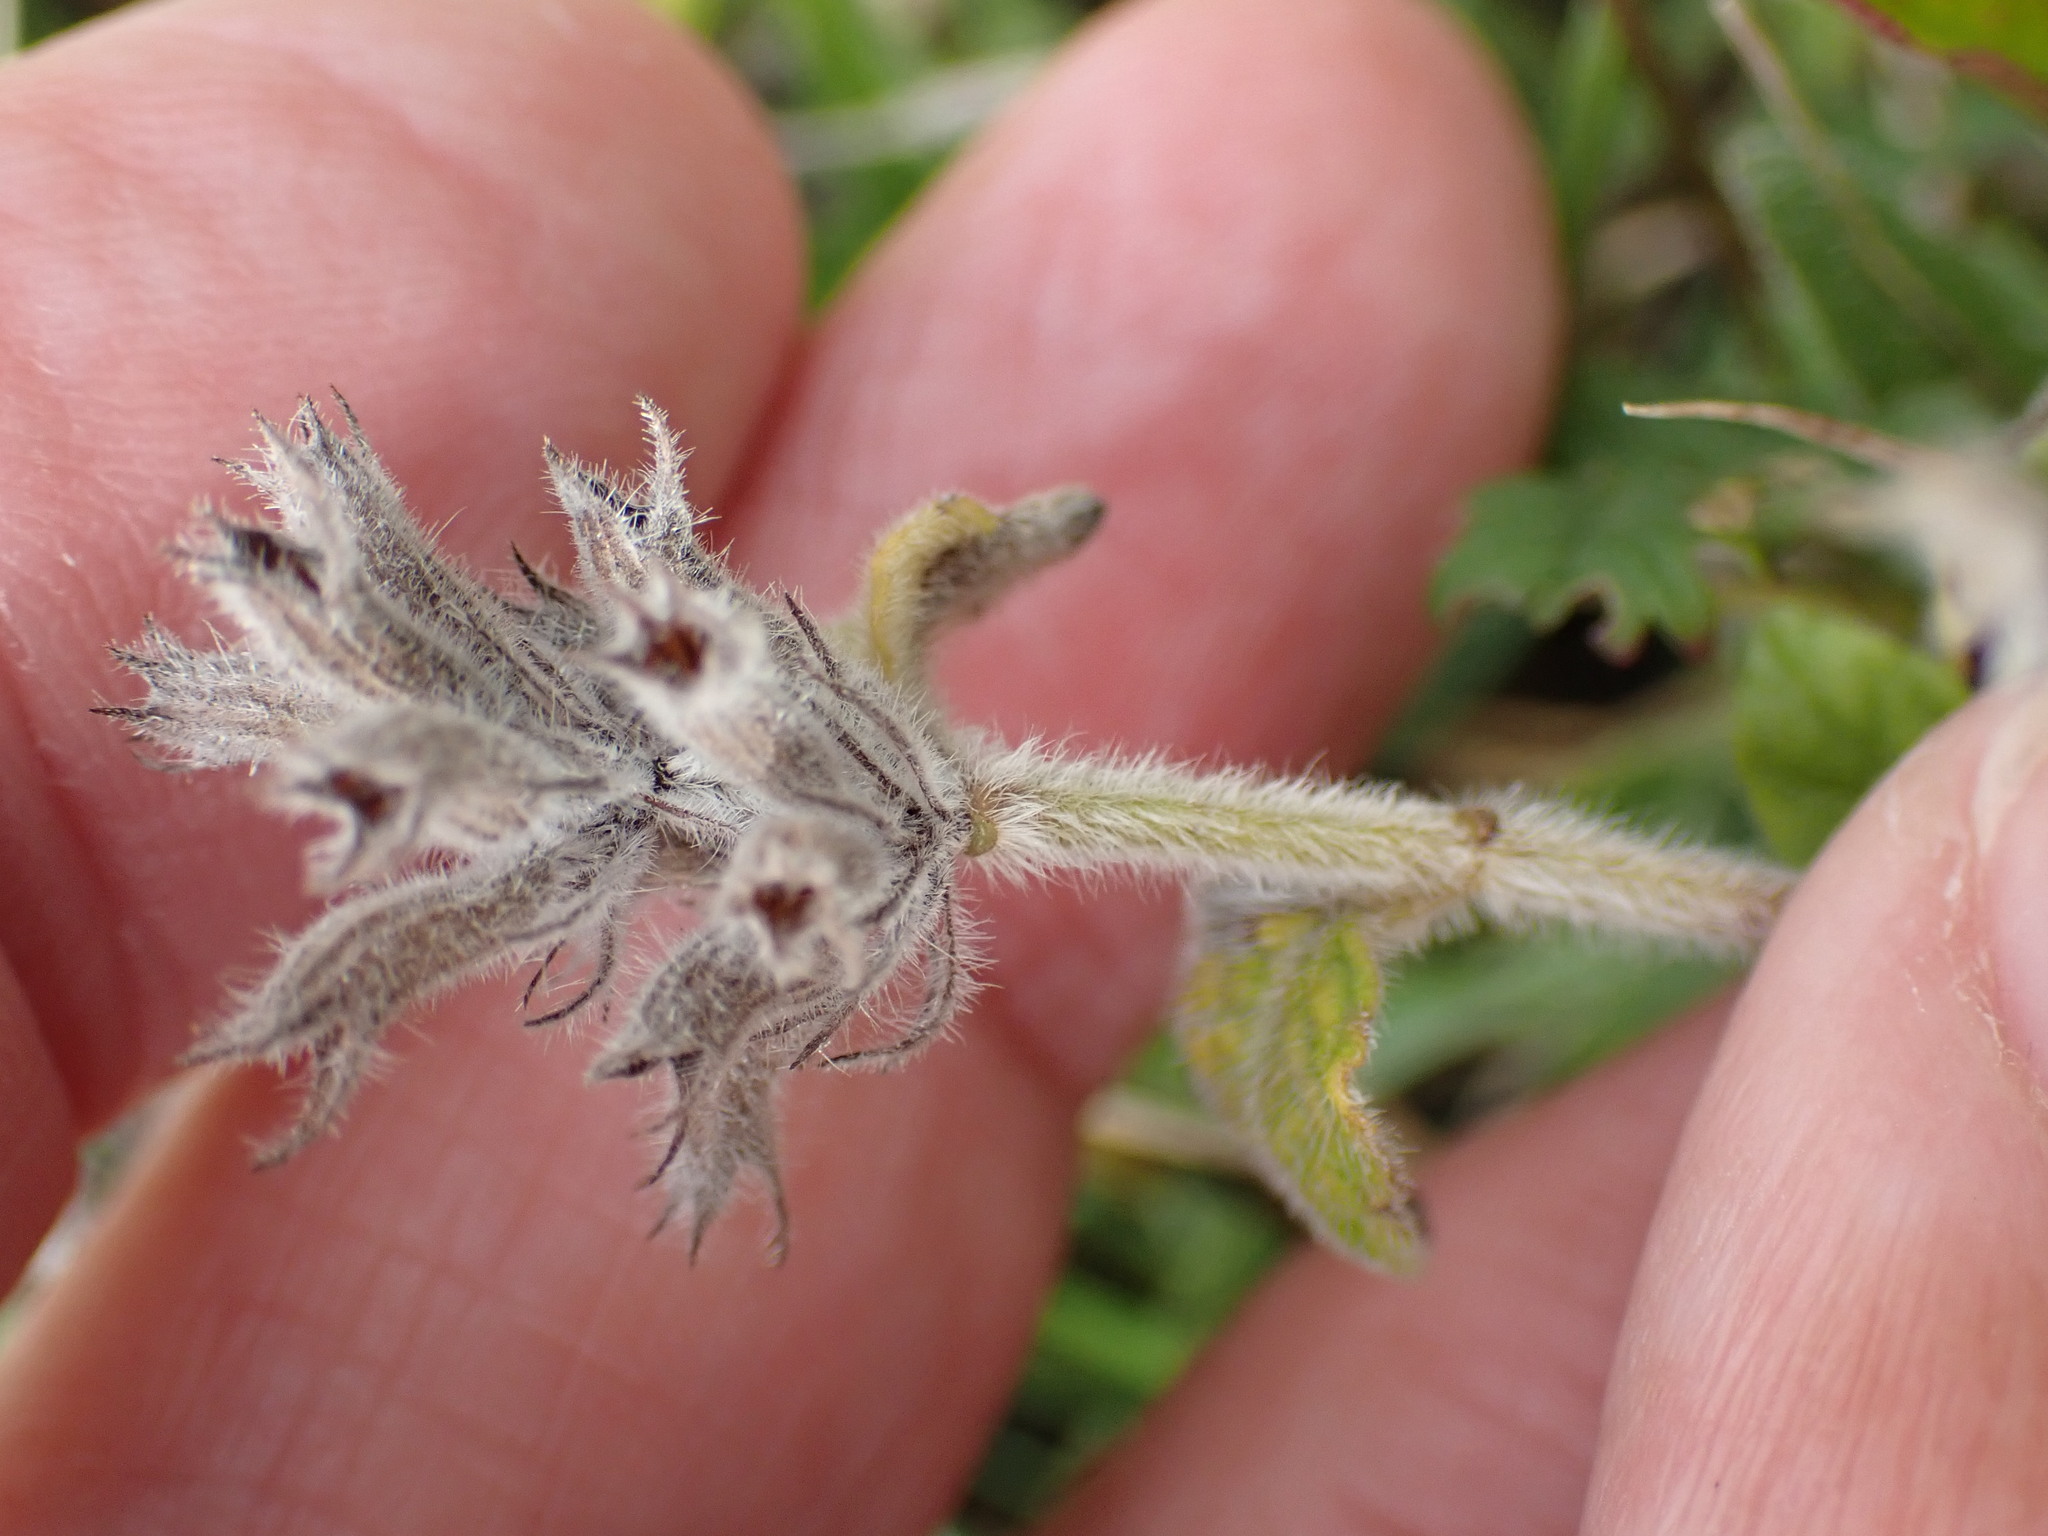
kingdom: Plantae
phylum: Tracheophyta
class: Magnoliopsida
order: Lamiales
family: Lamiaceae
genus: Clinopodium
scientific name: Clinopodium vulgare
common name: Wild basil
